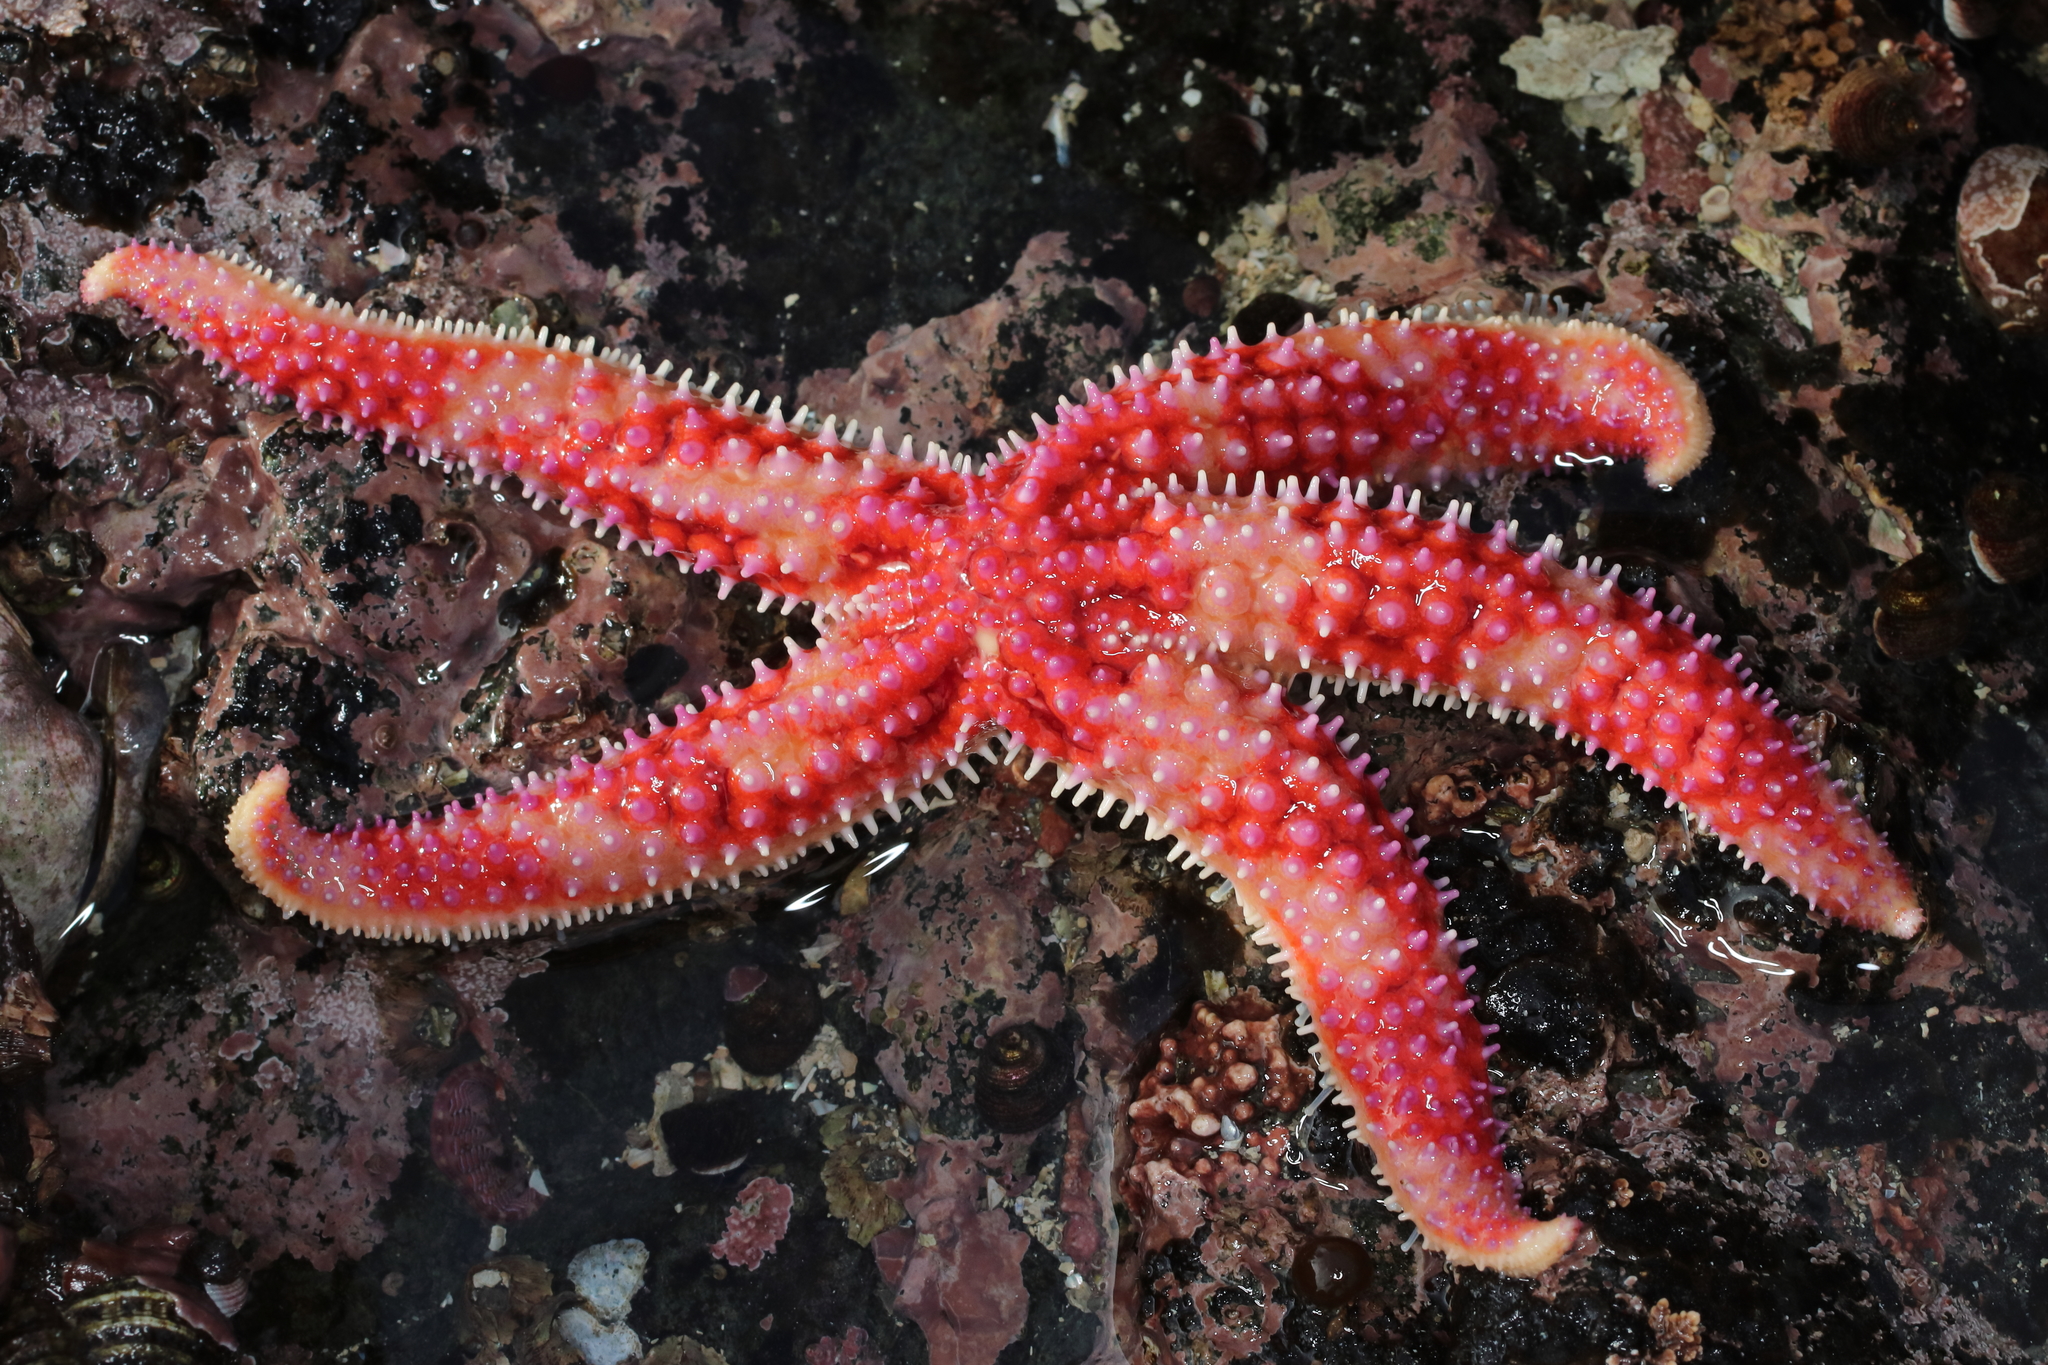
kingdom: Animalia
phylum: Echinodermata
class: Asteroidea
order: Forcipulatida
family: Asteriidae
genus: Orthasterias
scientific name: Orthasterias koehleri
